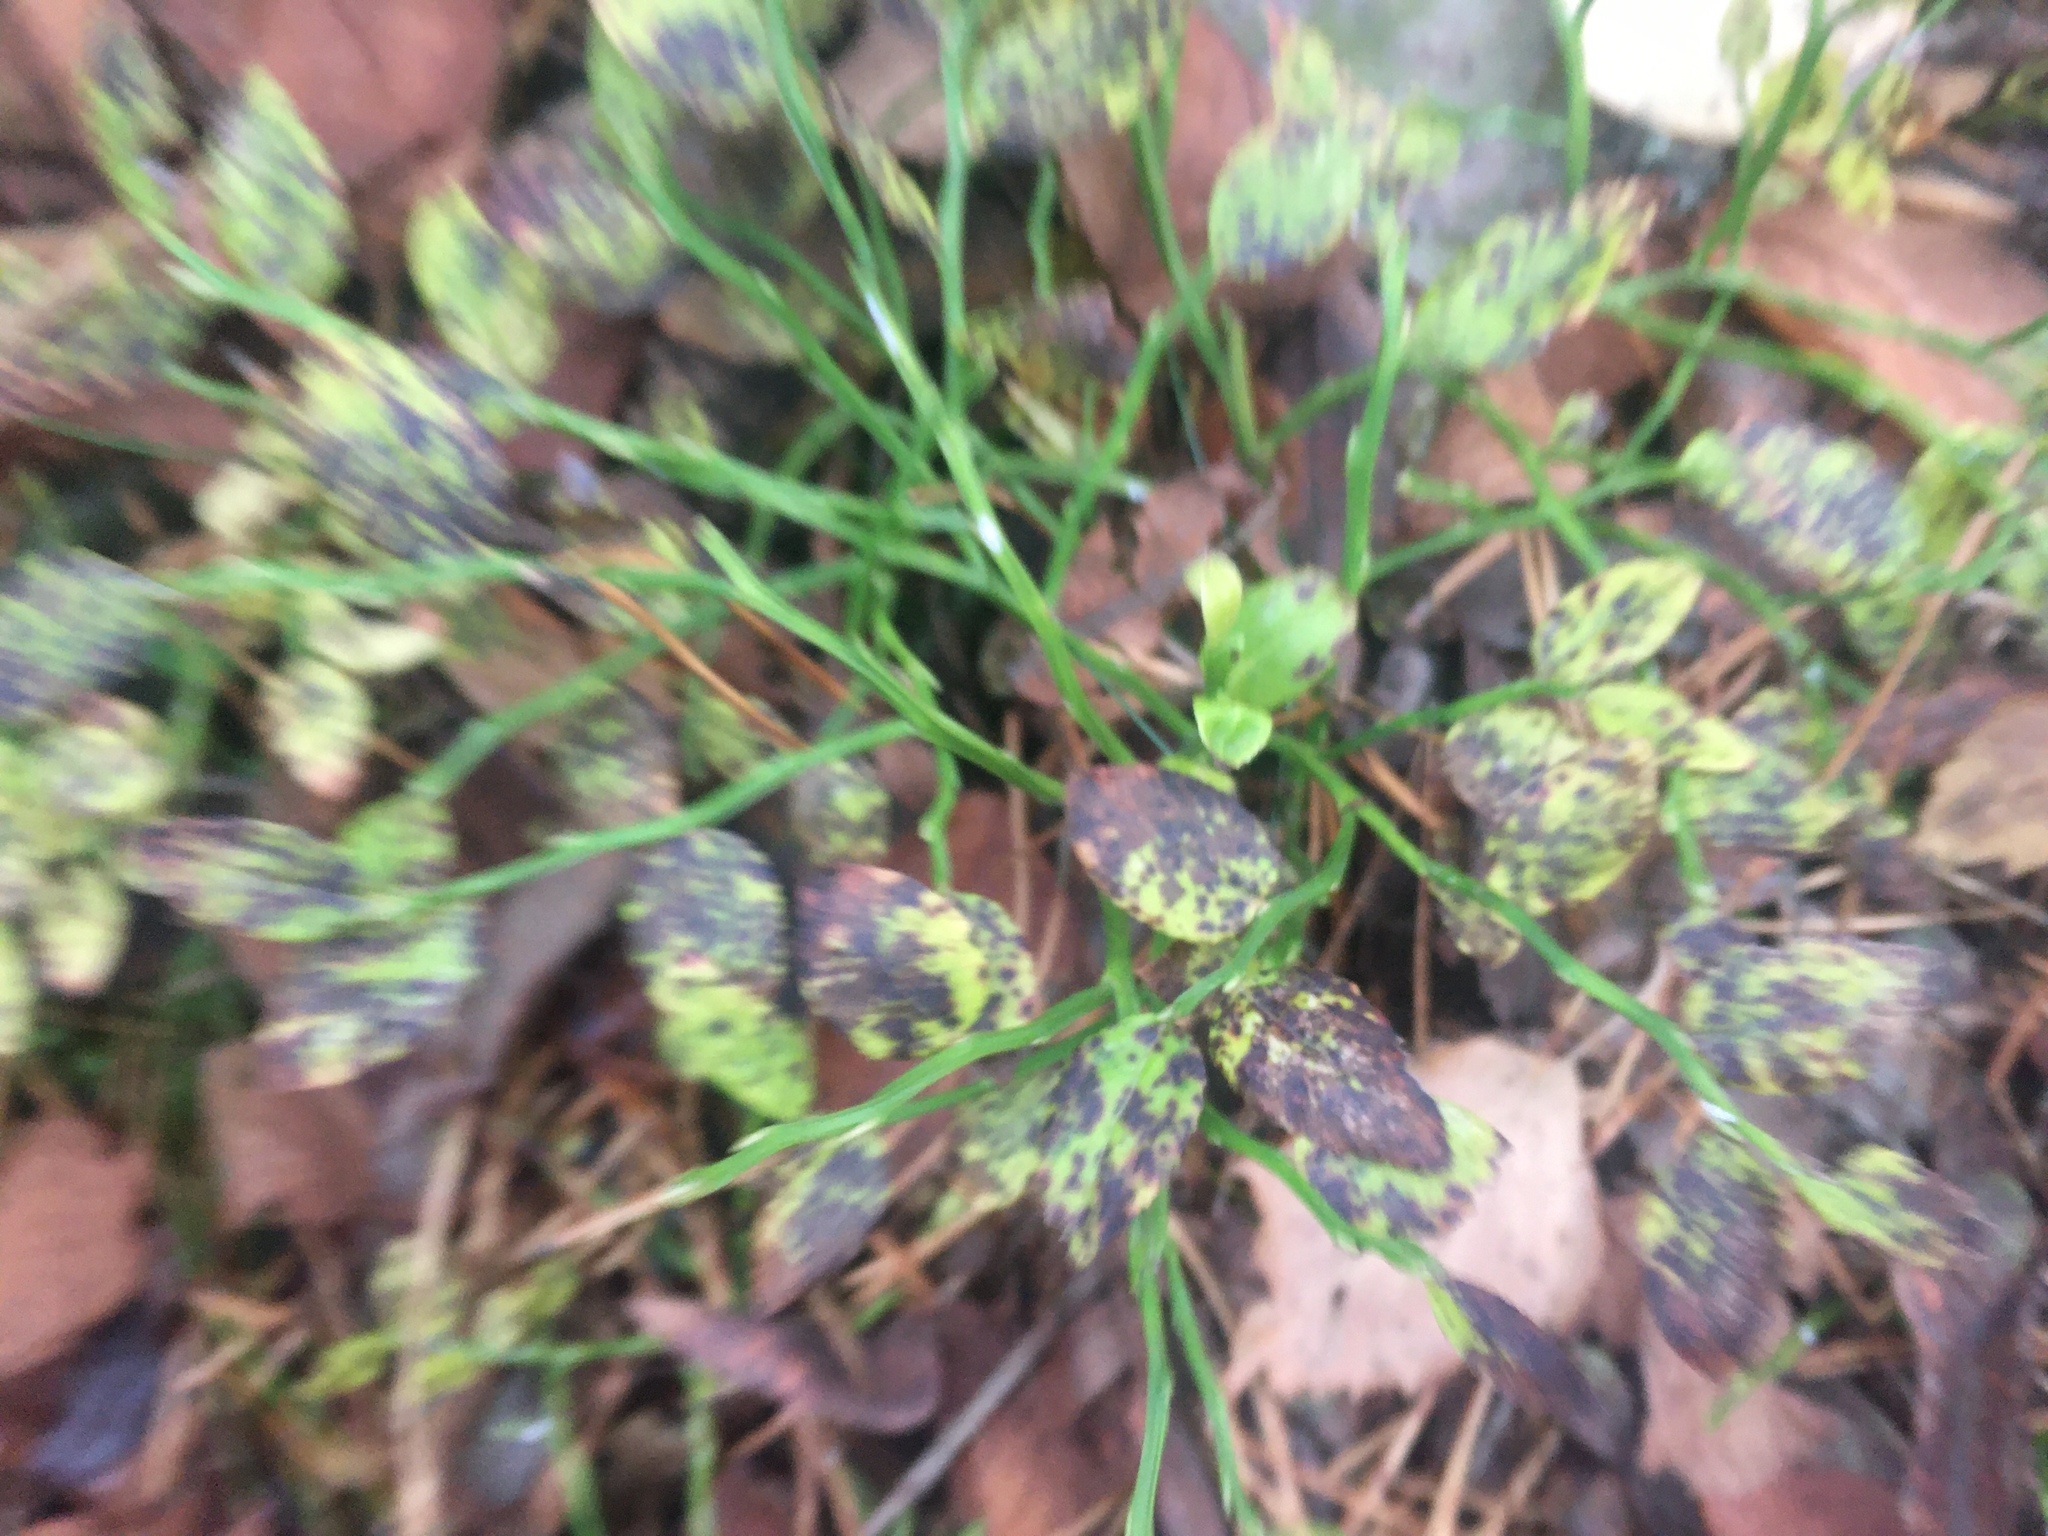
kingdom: Plantae
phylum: Tracheophyta
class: Magnoliopsida
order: Ericales
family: Ericaceae
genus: Vaccinium
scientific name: Vaccinium myrtillus
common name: Bilberry
